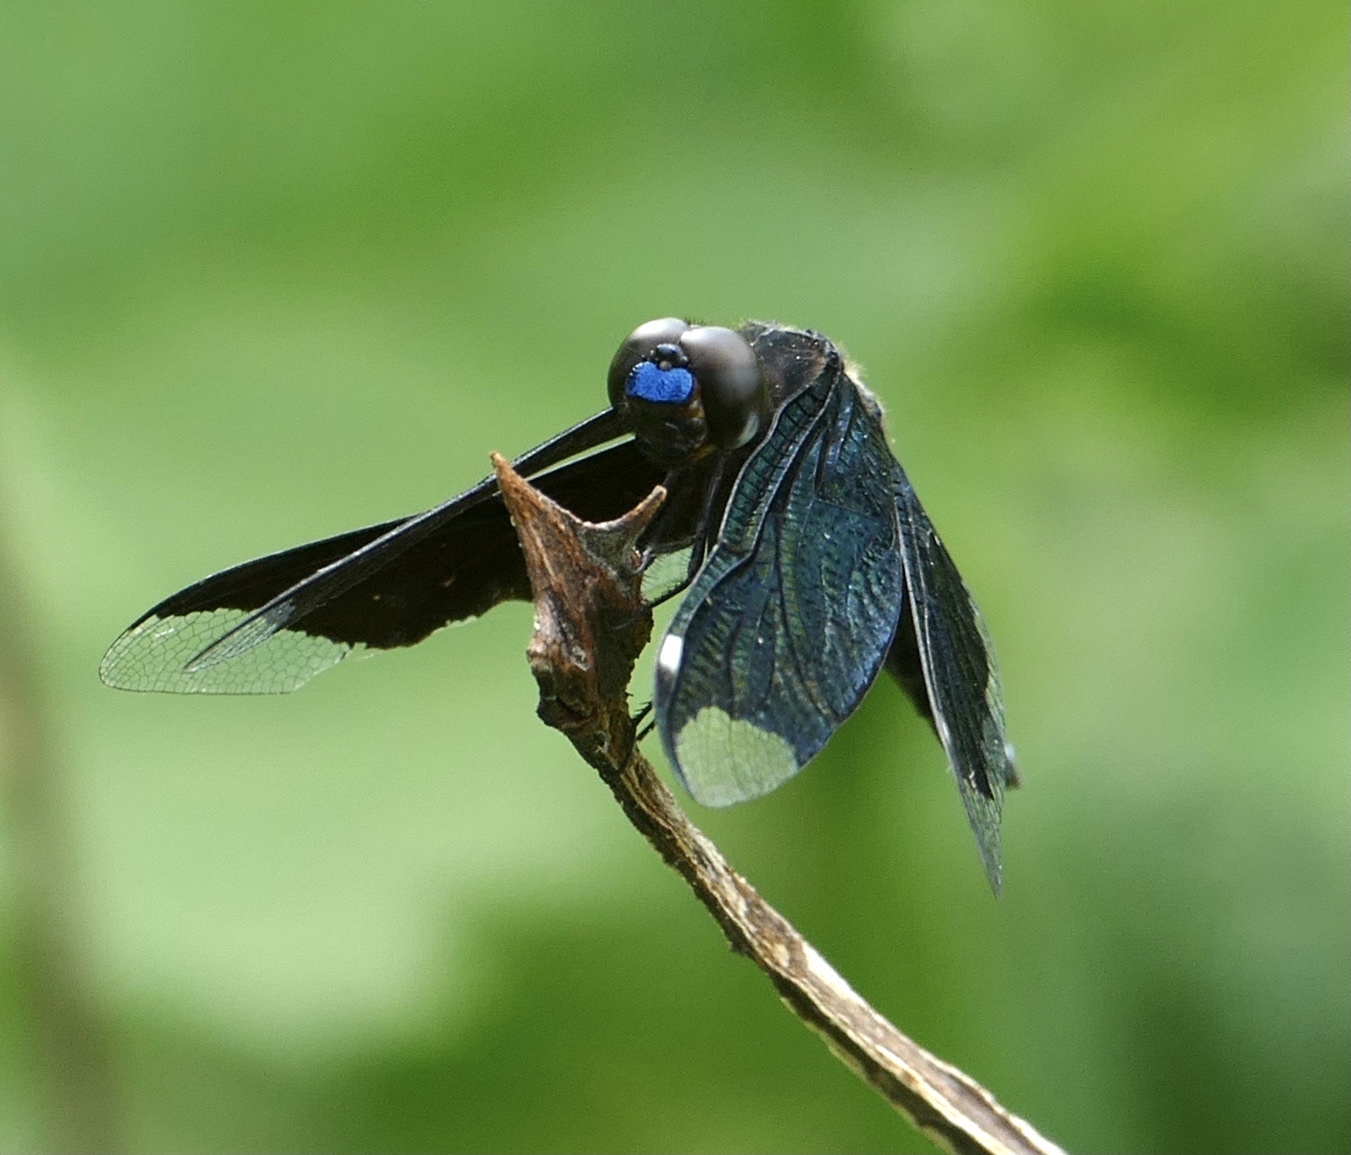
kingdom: Animalia
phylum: Arthropoda
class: Insecta
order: Odonata
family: Libellulidae
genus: Palpopleura
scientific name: Palpopleura lucia
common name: Lucia widow
